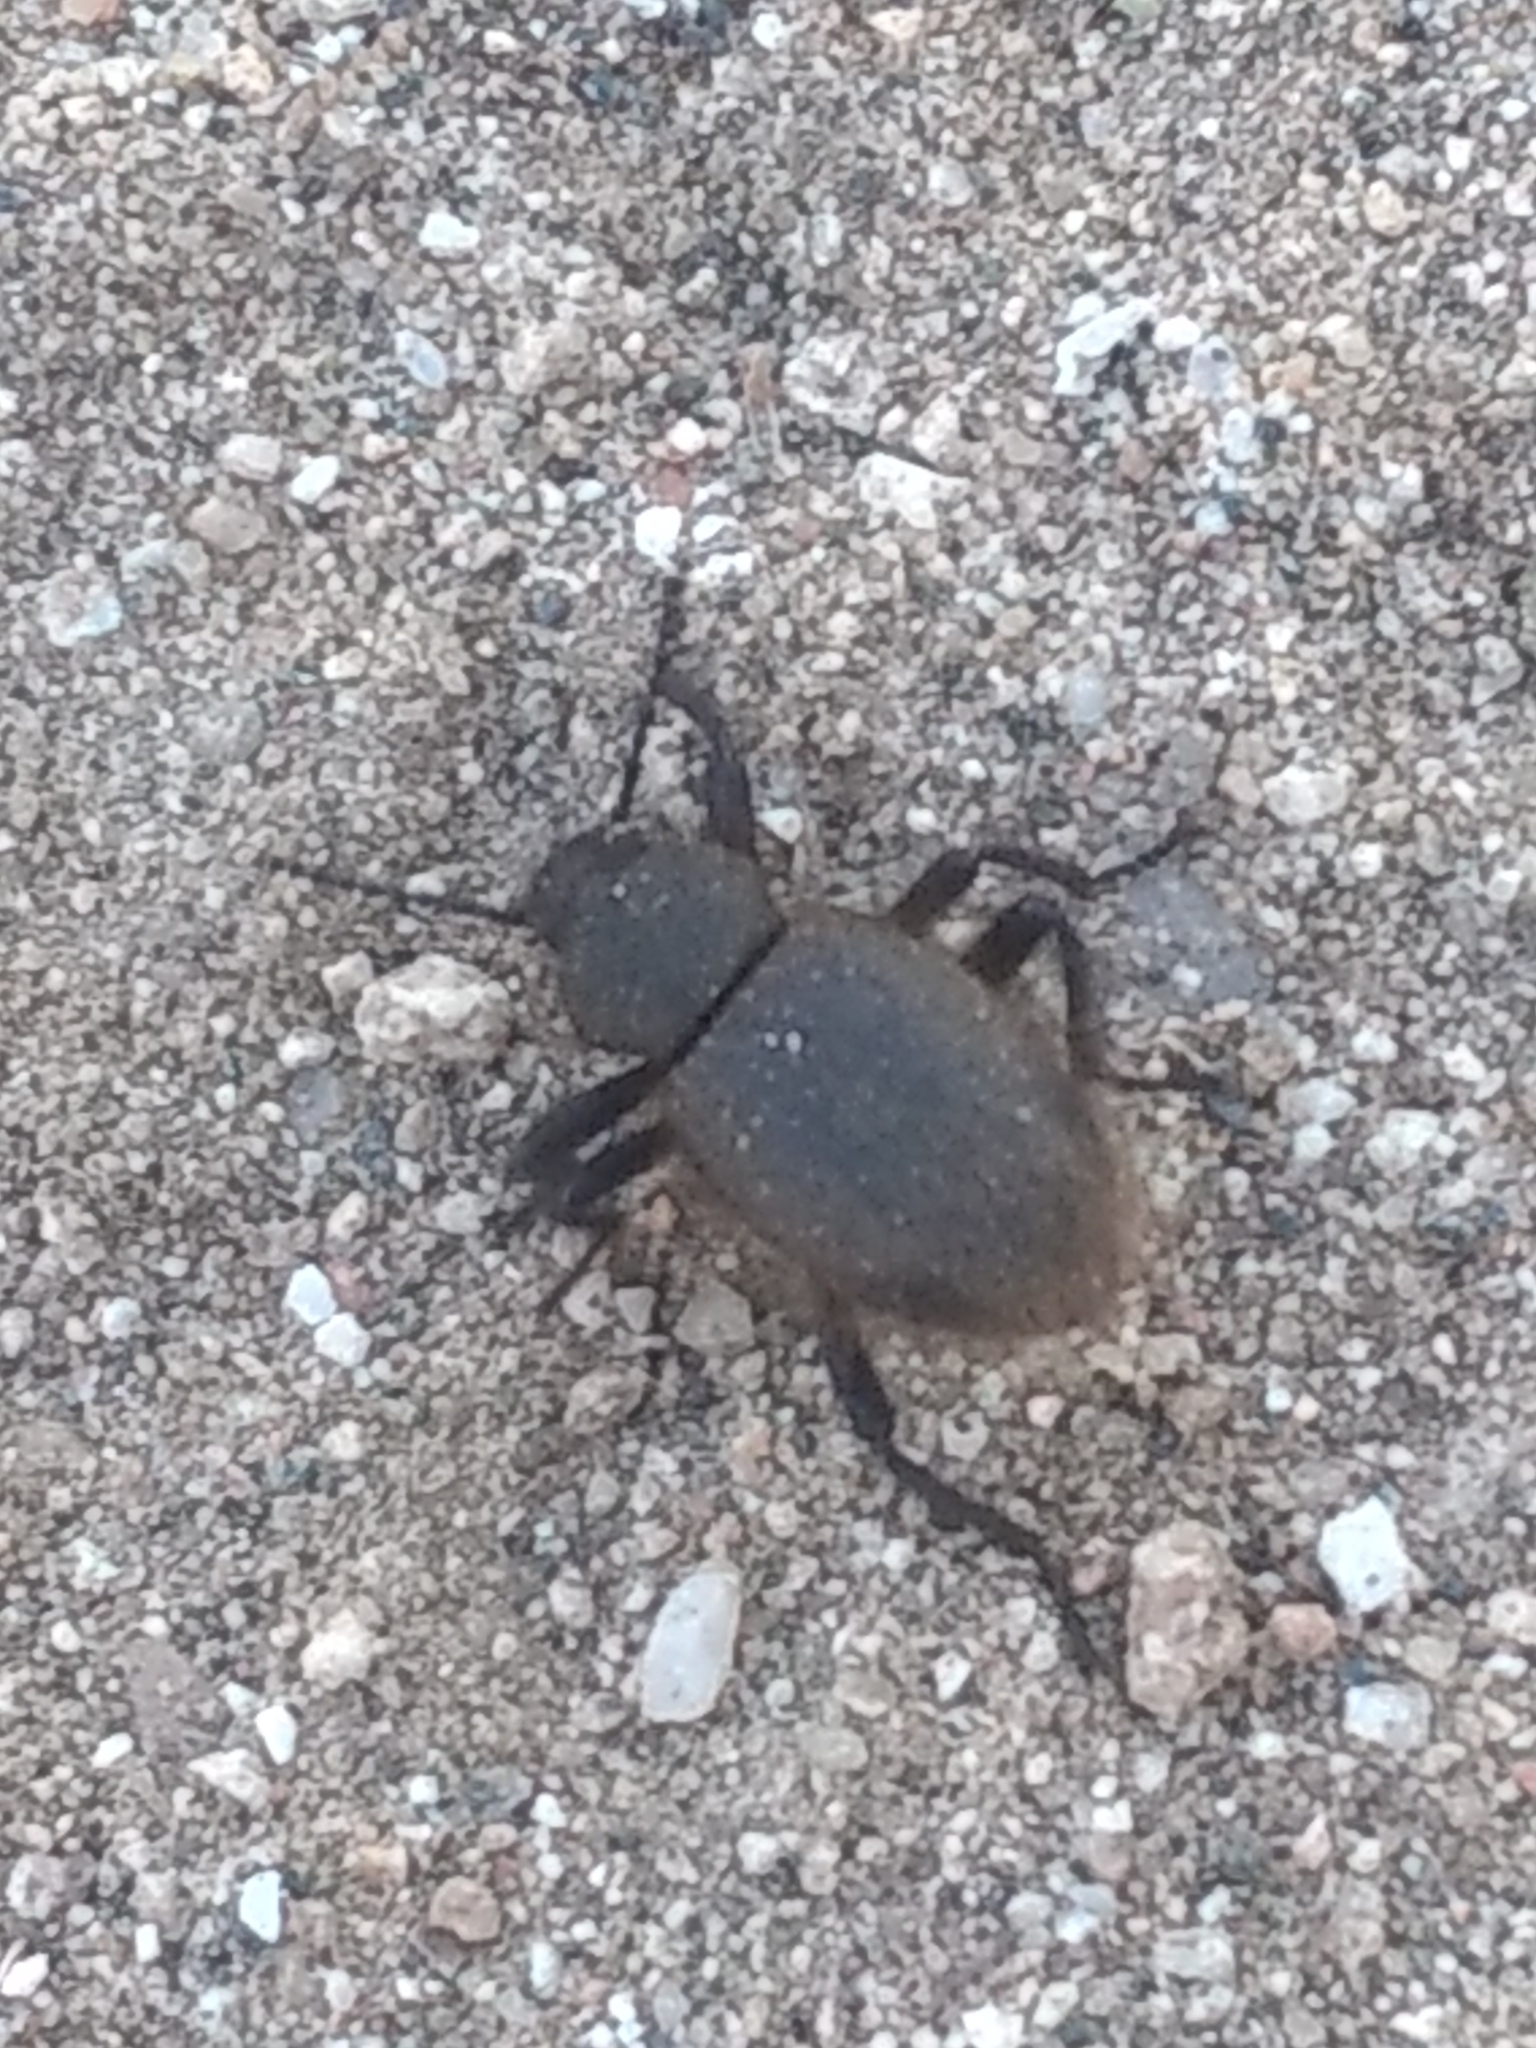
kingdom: Animalia
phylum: Arthropoda
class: Insecta
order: Coleoptera
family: Tenebrionidae
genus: Eleodes
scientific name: Eleodes osculans
